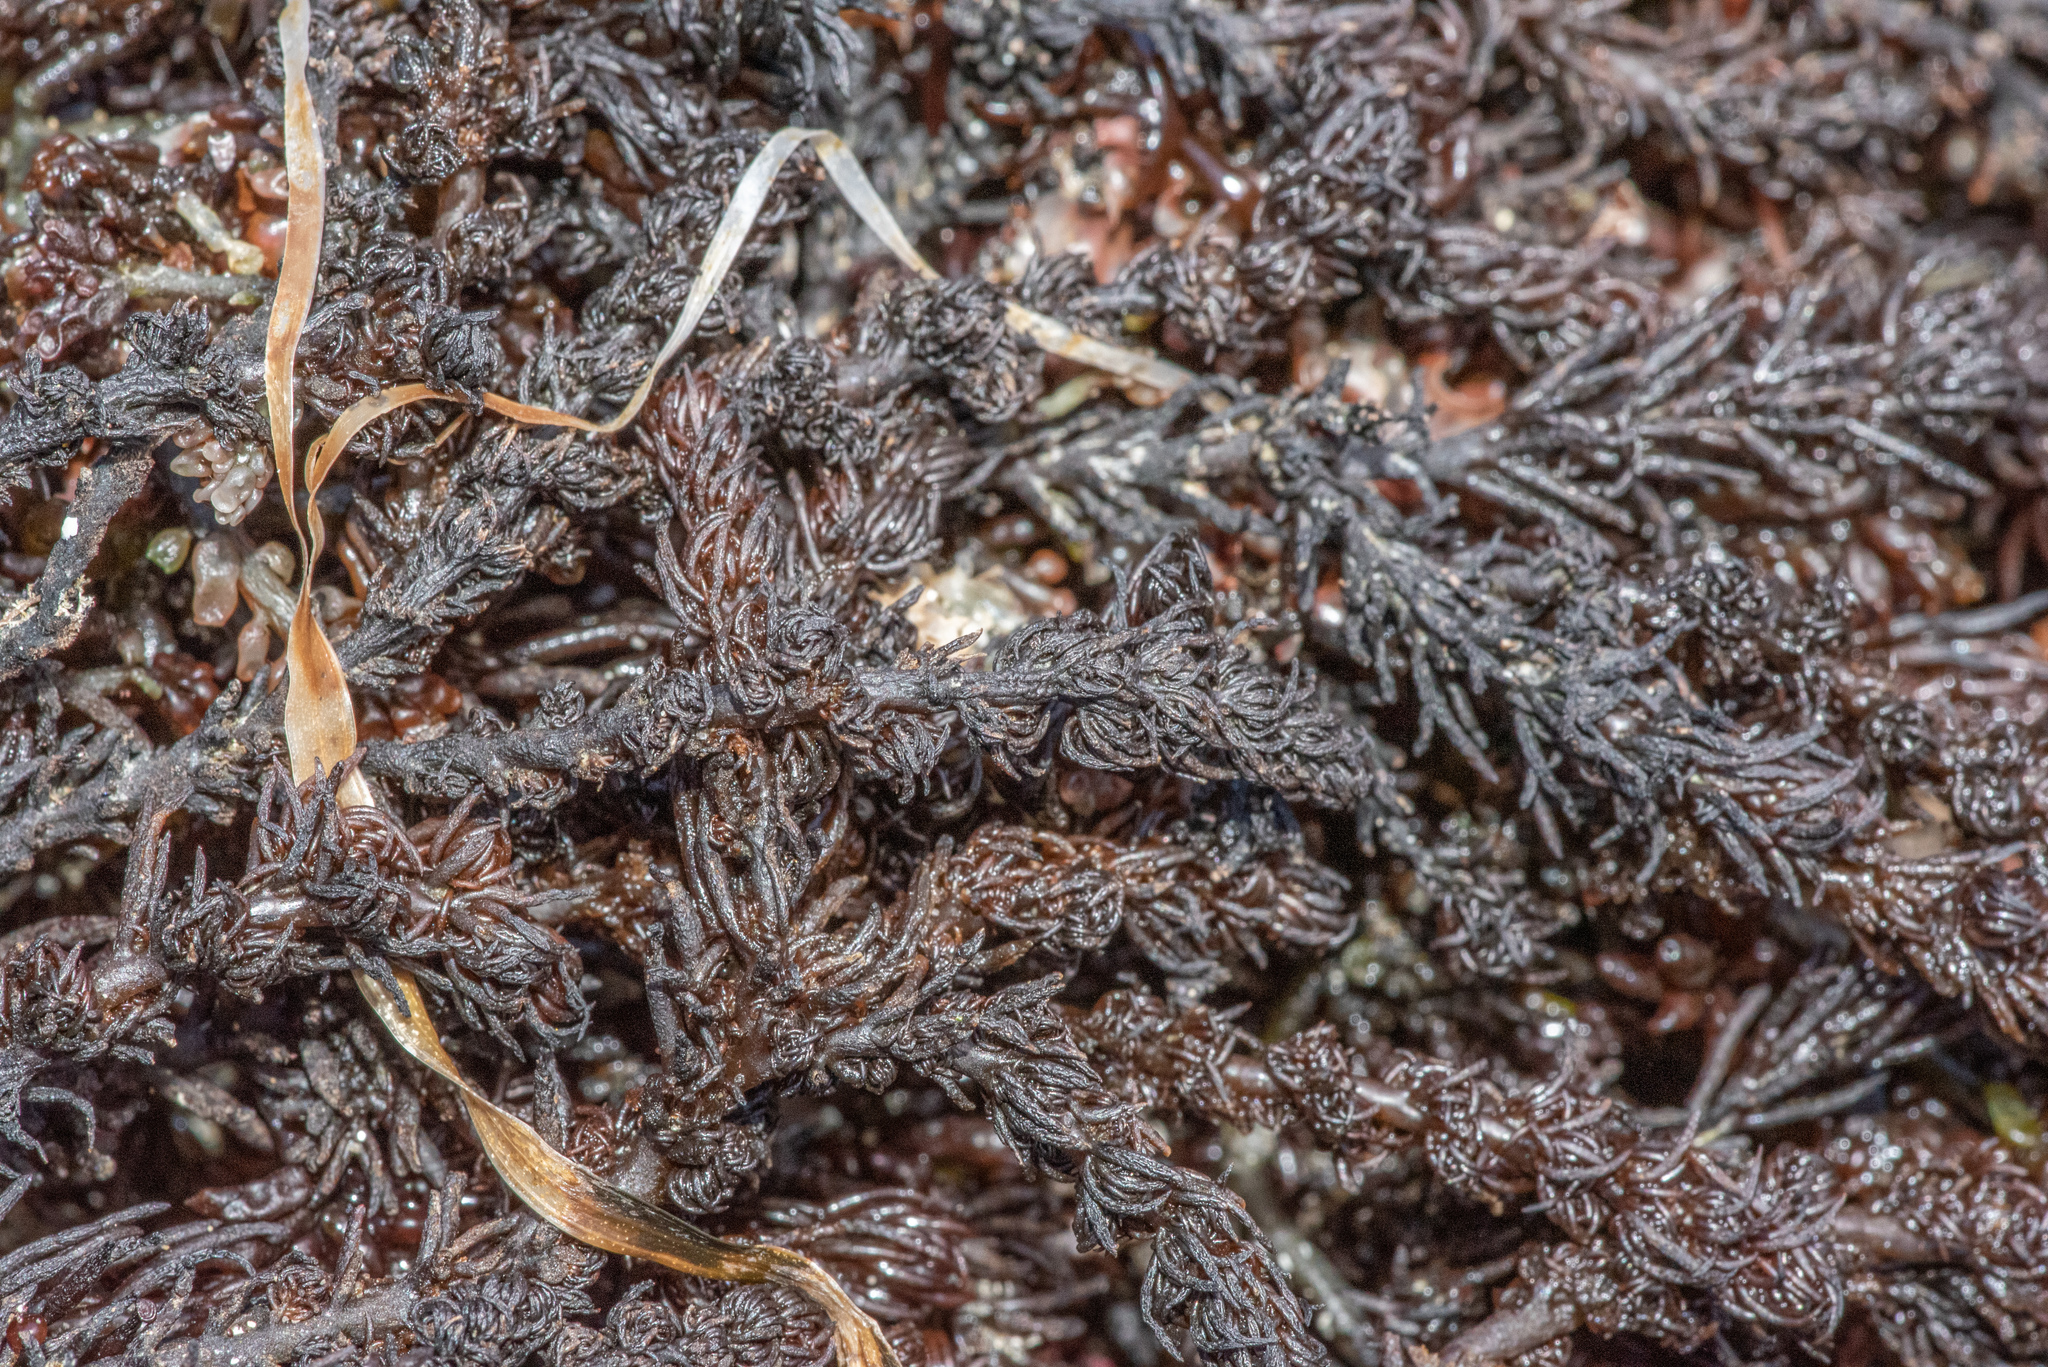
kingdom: Plantae
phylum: Rhodophyta
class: Florideophyceae
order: Ceramiales
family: Rhodomelaceae
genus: Neorhodomela
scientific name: Neorhodomela larix
